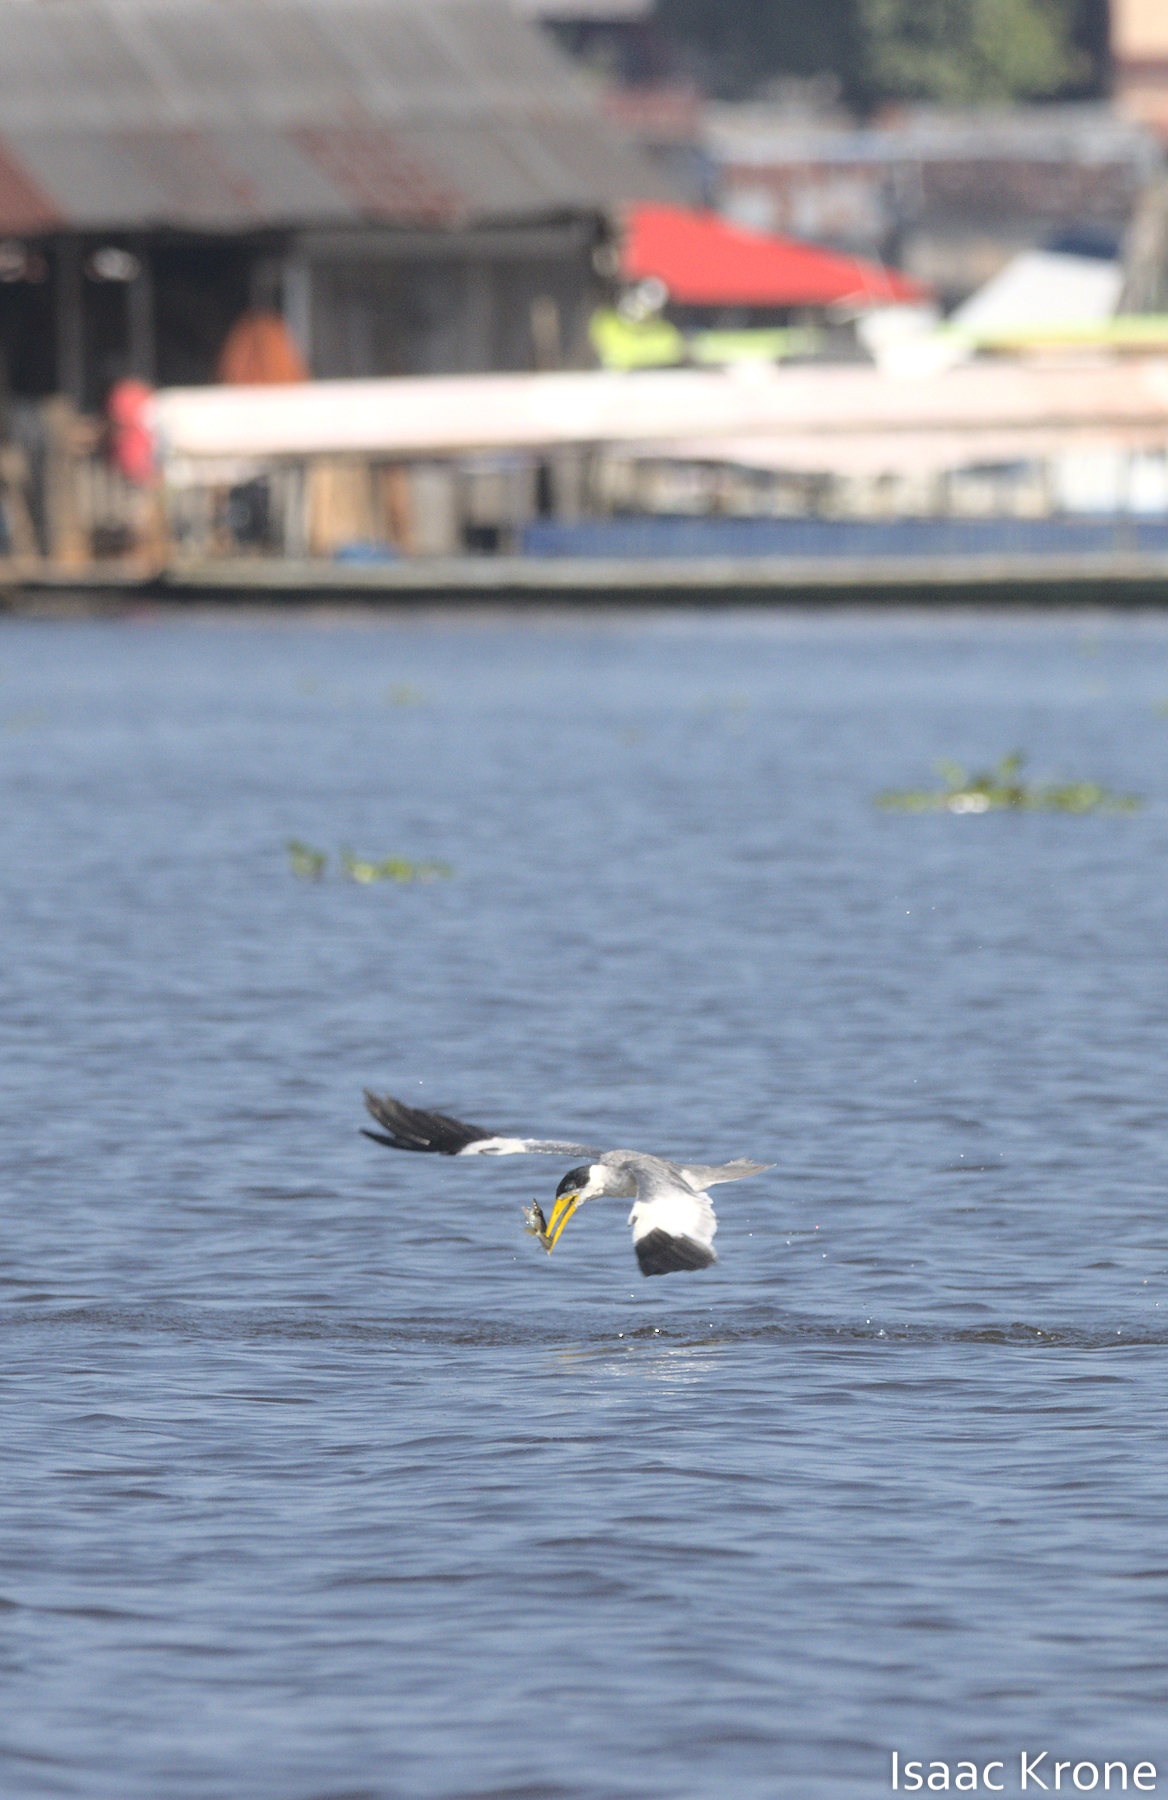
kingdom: Animalia
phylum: Chordata
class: Aves
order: Charadriiformes
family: Laridae
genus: Phaetusa
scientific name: Phaetusa simplex
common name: Large-billed tern
